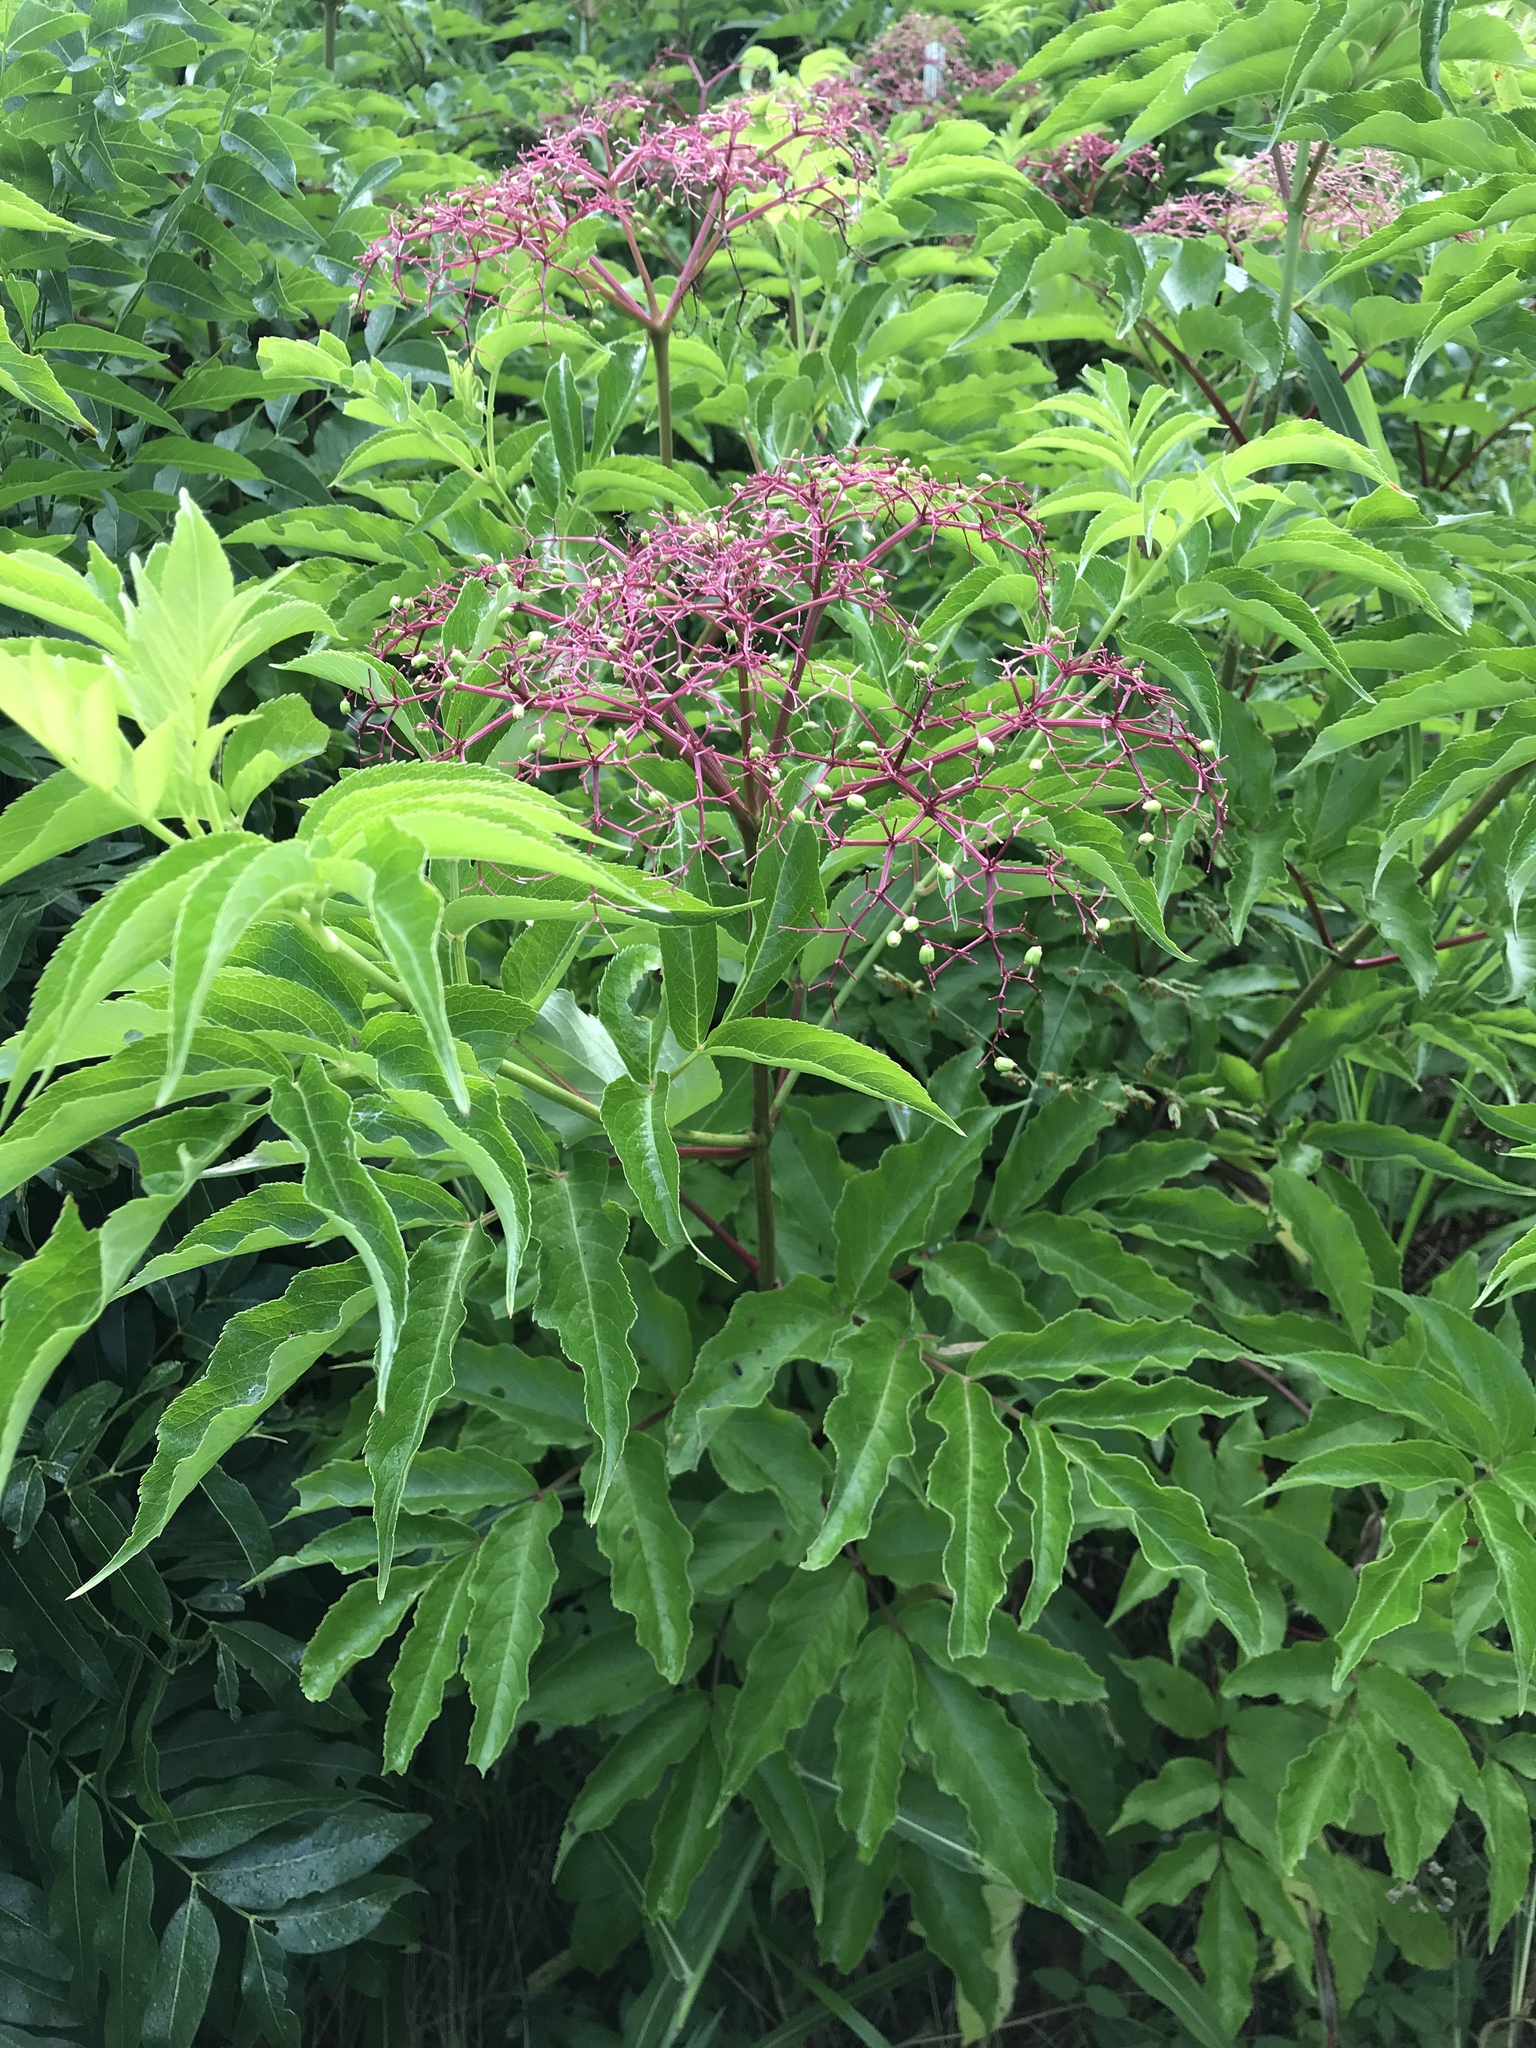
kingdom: Plantae
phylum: Tracheophyta
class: Magnoliopsida
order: Dipsacales
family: Viburnaceae
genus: Sambucus
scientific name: Sambucus canadensis
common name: American elder
